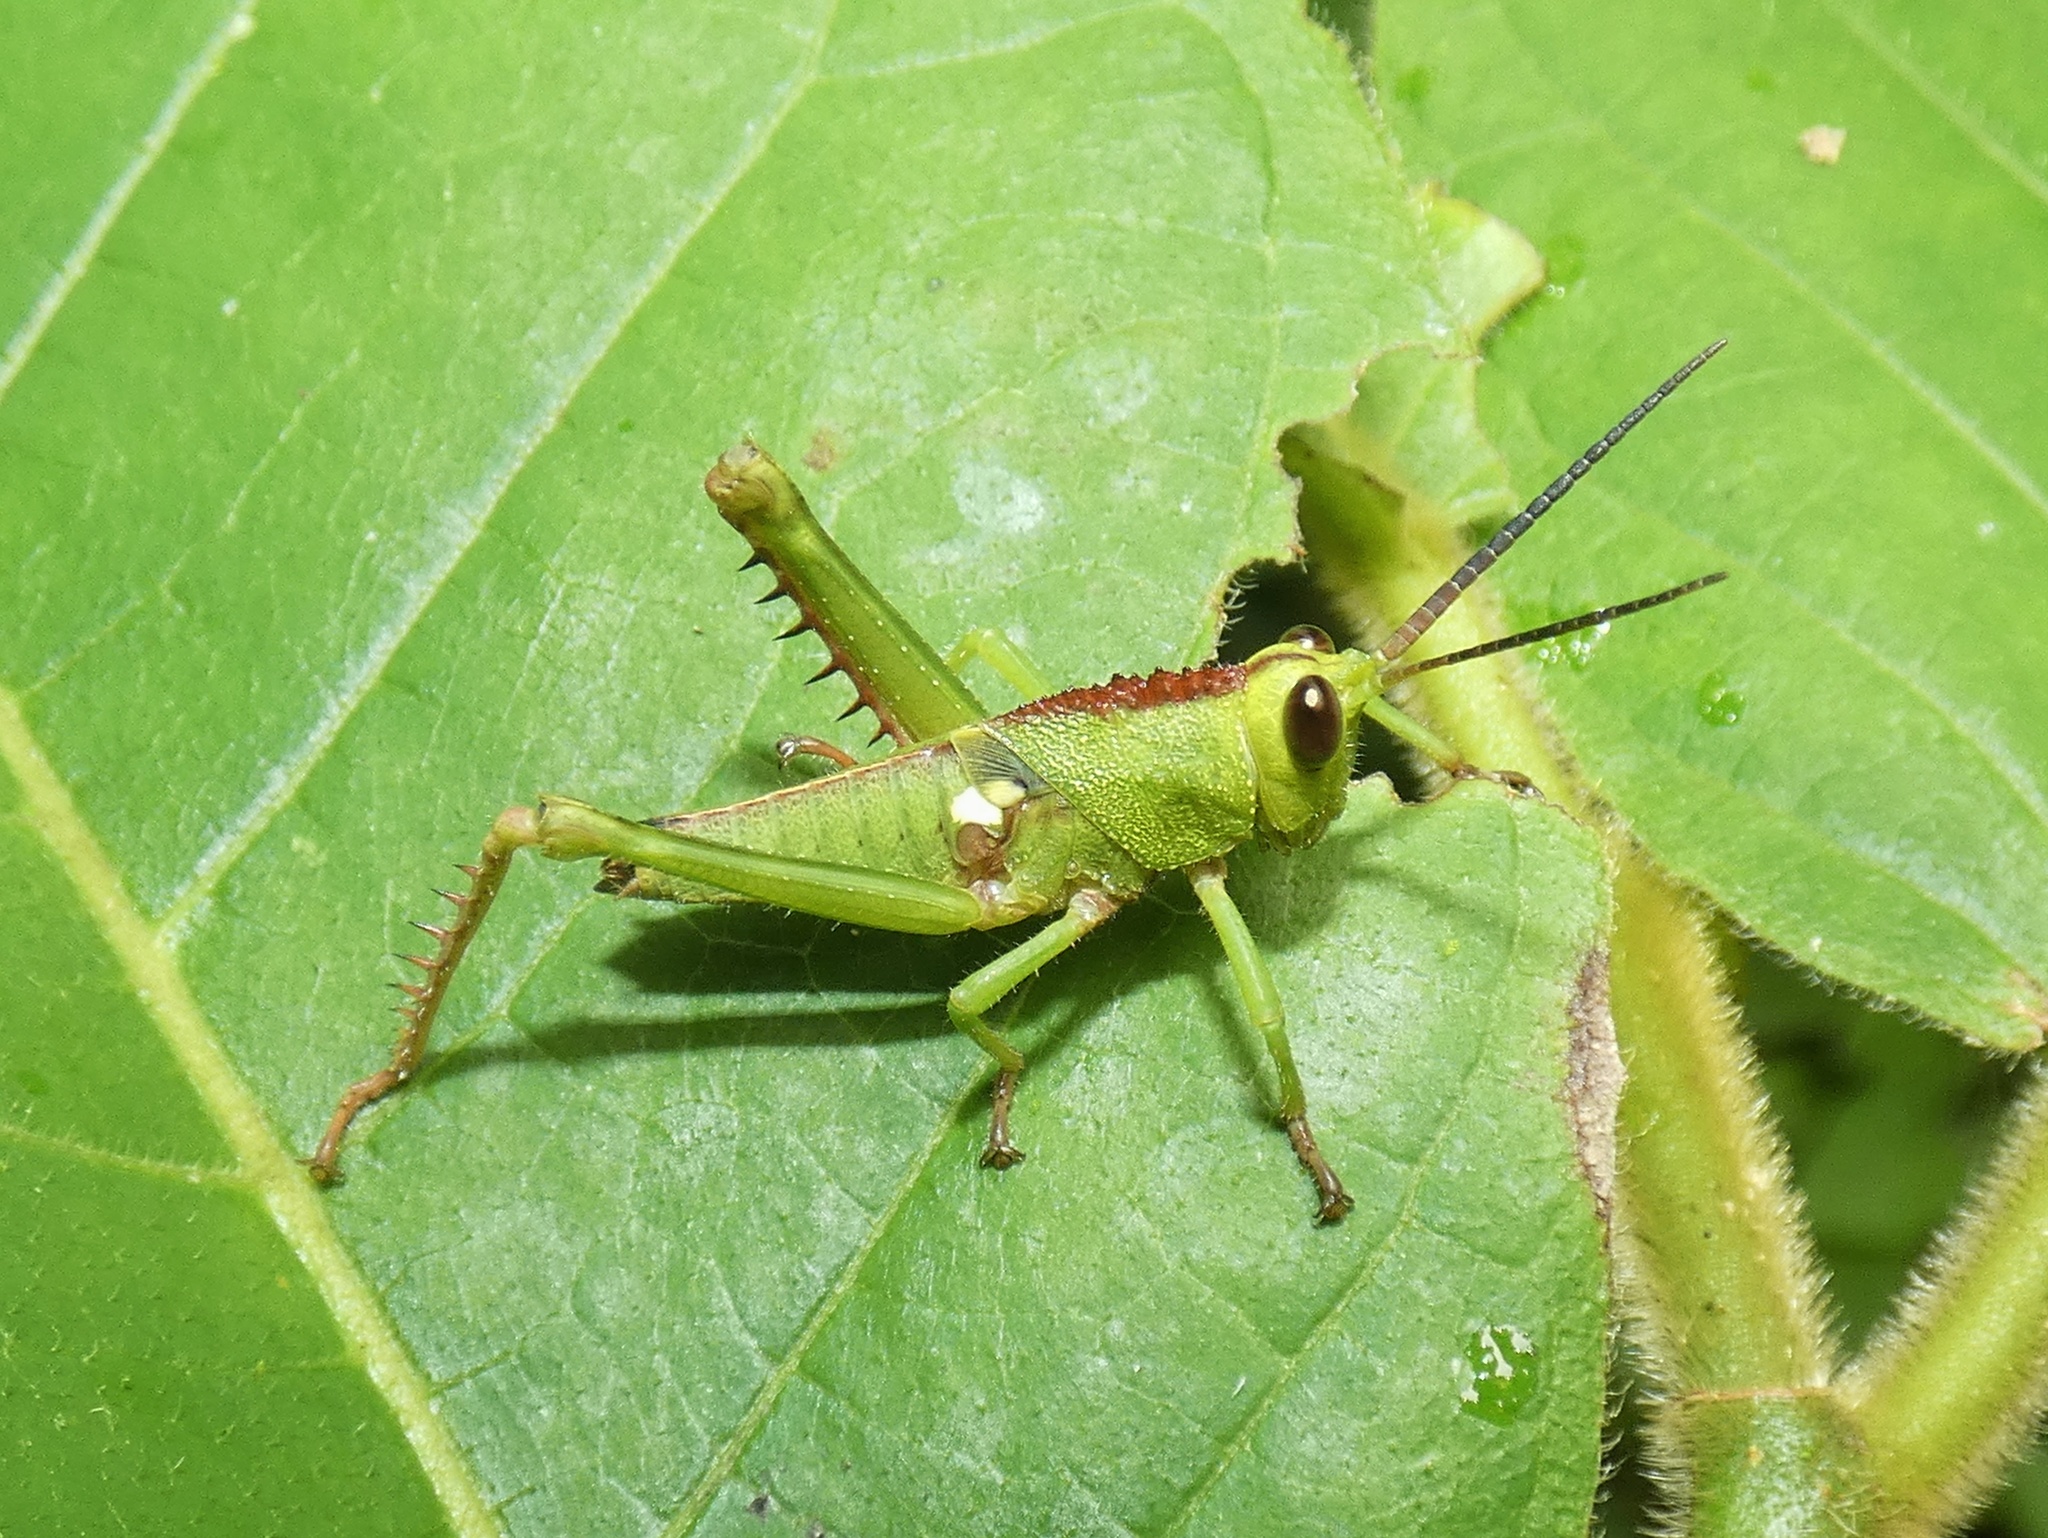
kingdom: Animalia
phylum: Arthropoda
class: Insecta
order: Orthoptera
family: Romaleidae
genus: Agriacris
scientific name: Agriacris tricristata
